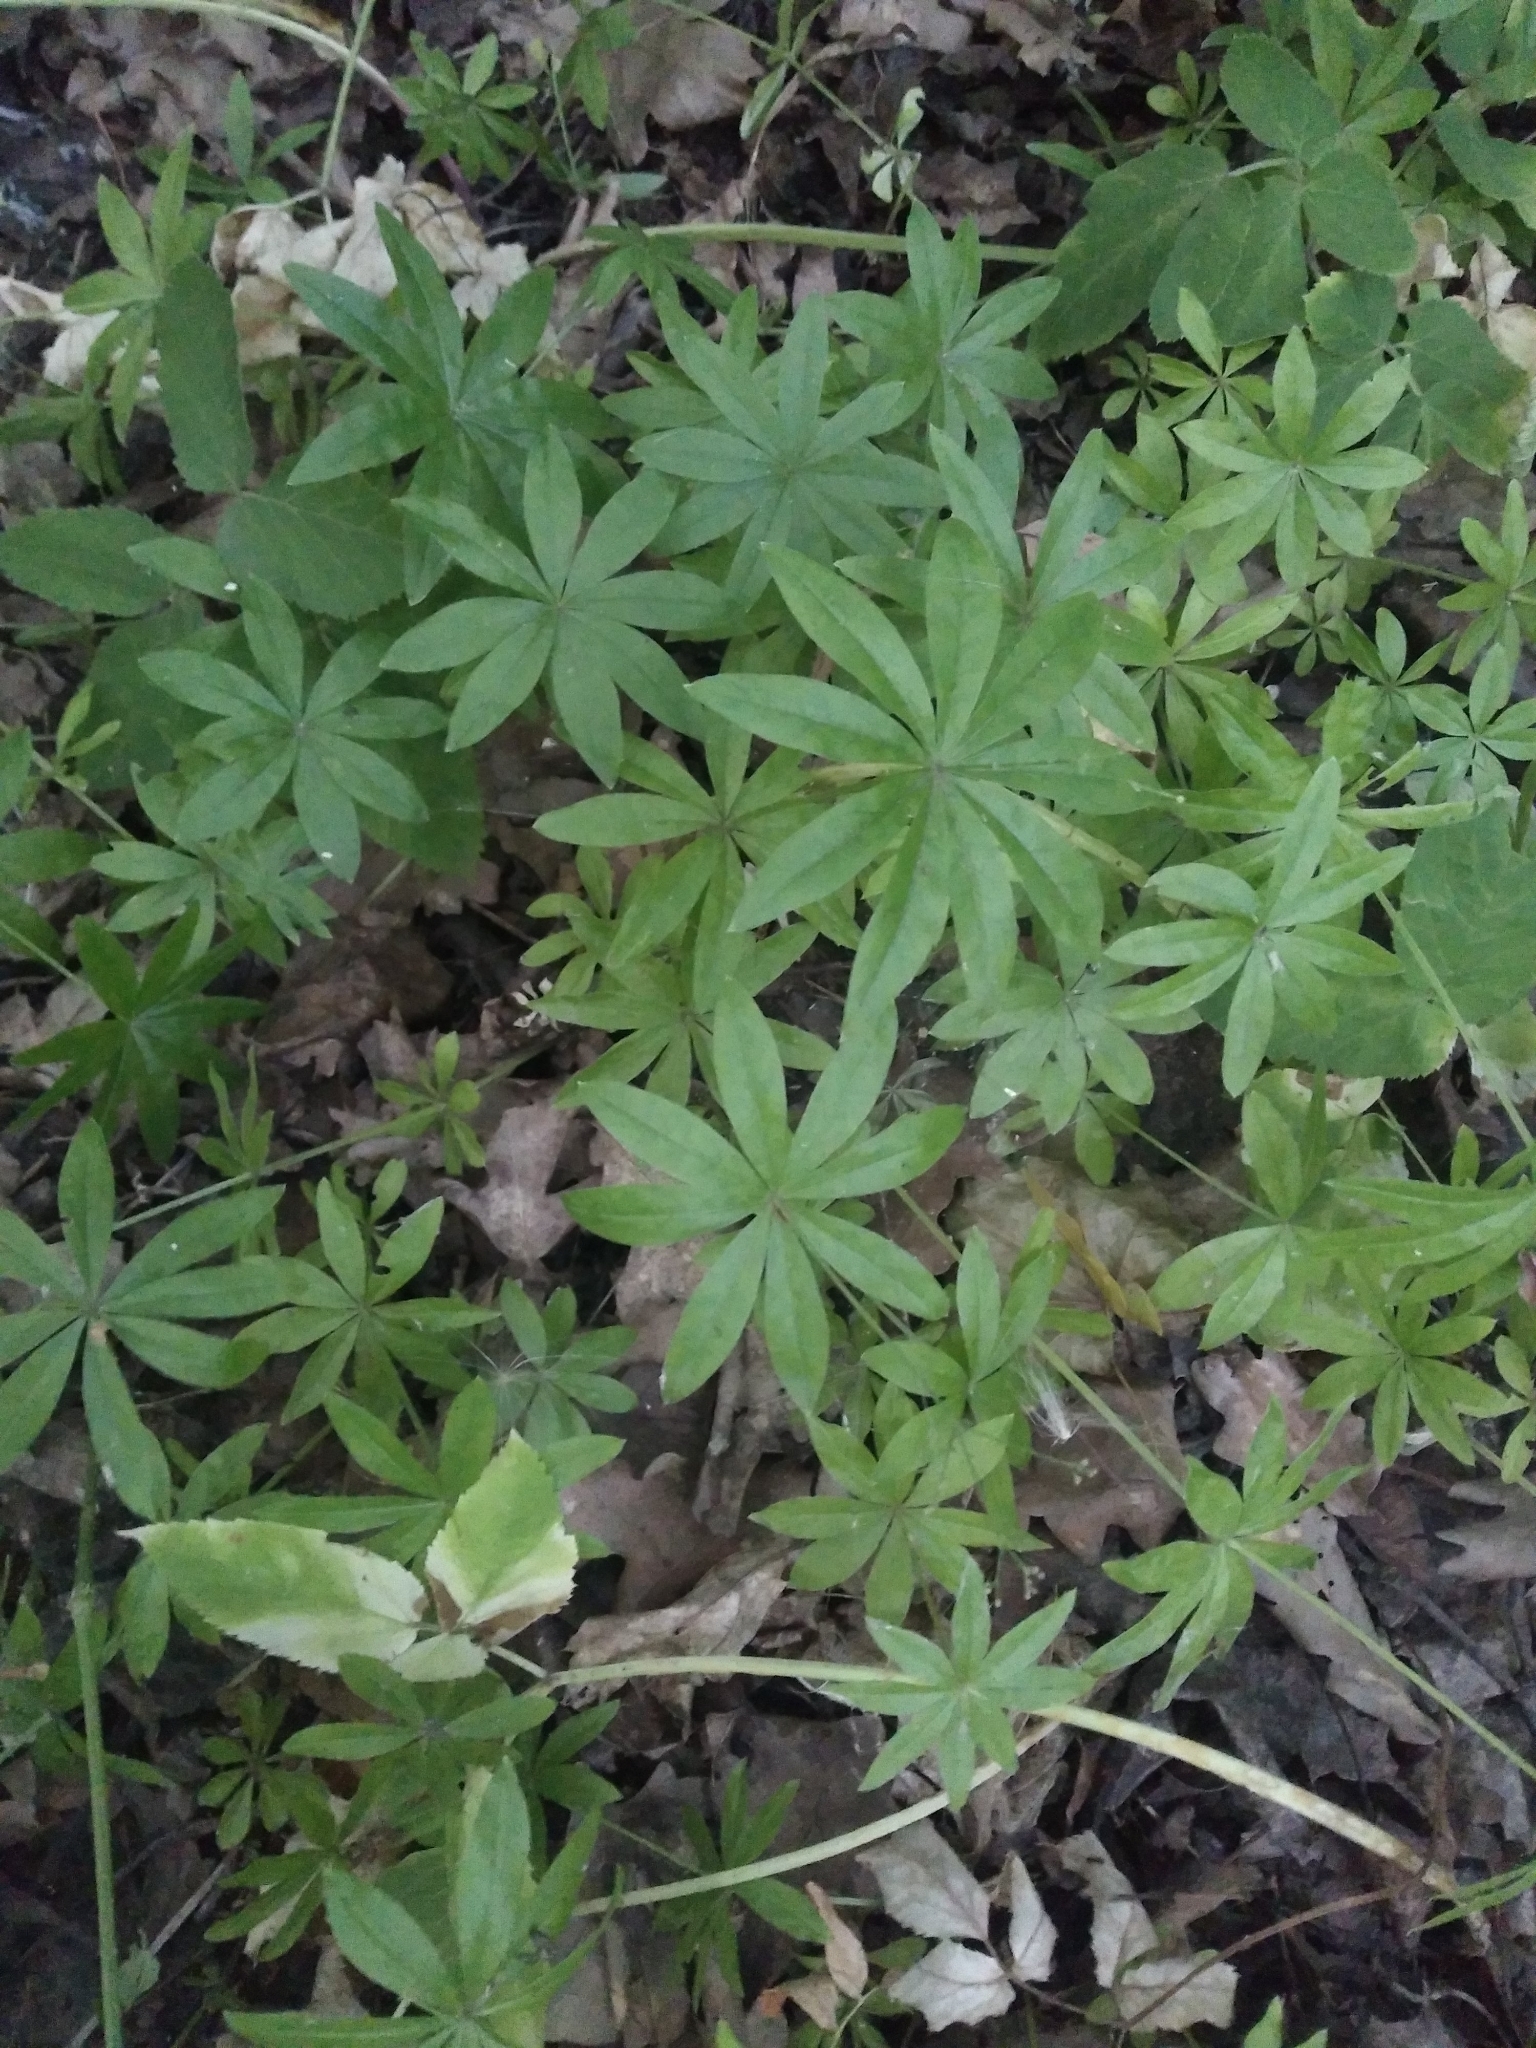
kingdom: Plantae
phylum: Tracheophyta
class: Magnoliopsida
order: Gentianales
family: Rubiaceae
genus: Galium
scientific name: Galium odoratum
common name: Sweet woodruff
